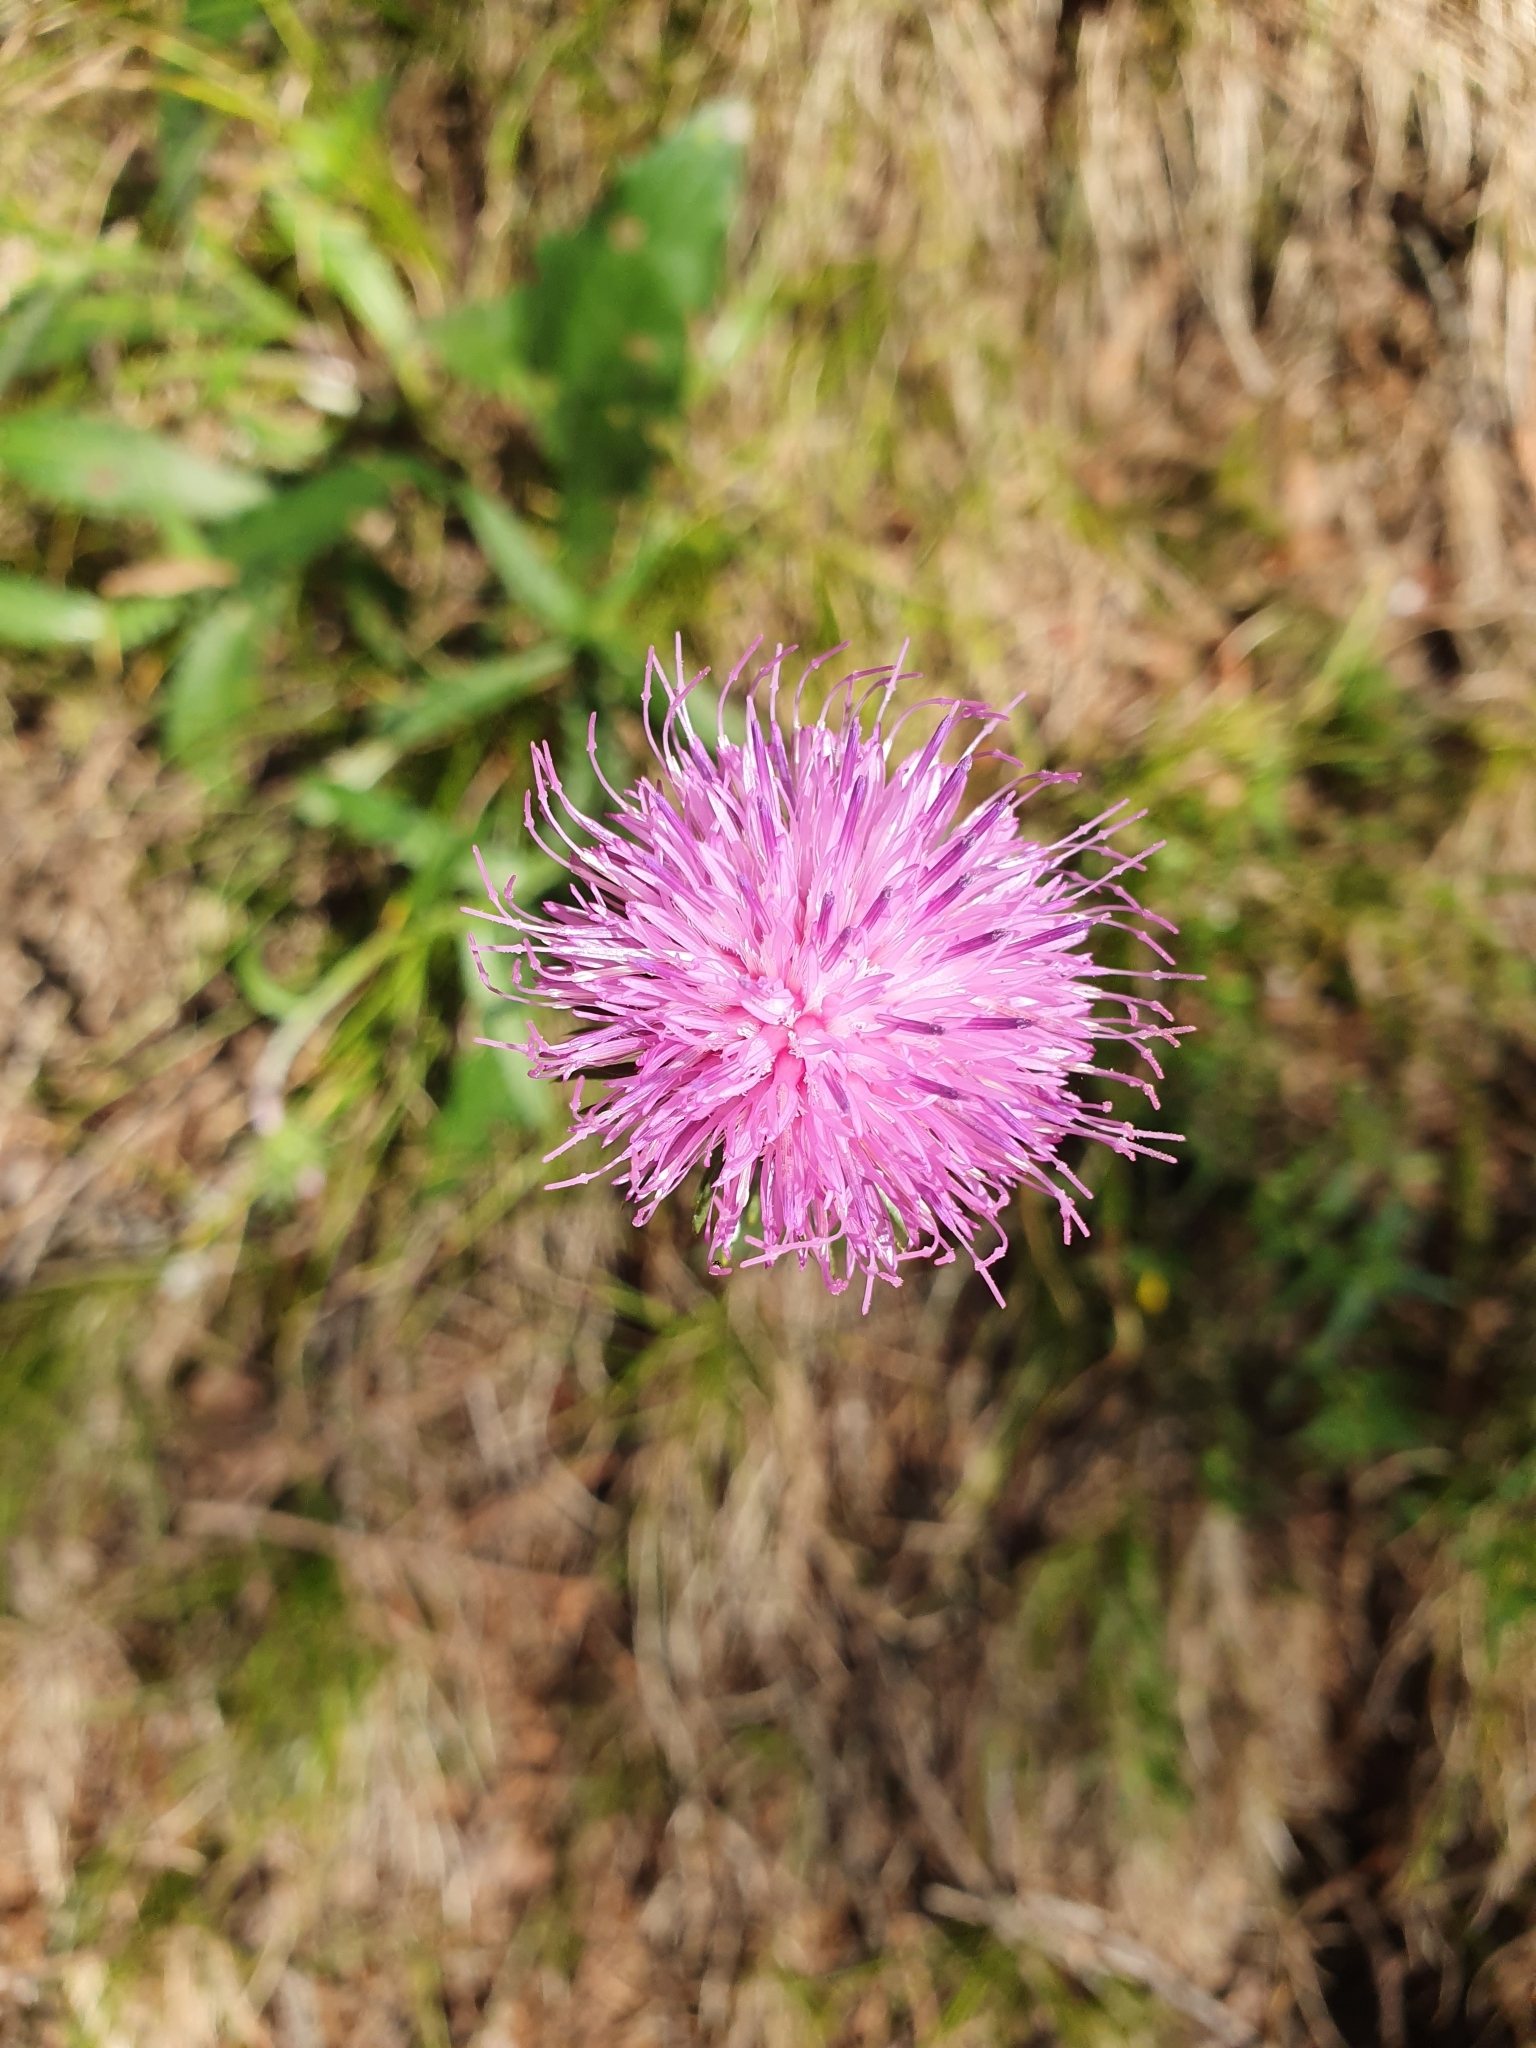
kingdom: Plantae
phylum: Tracheophyta
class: Magnoliopsida
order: Asterales
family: Asteraceae
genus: Carduus
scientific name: Carduus defloratus
